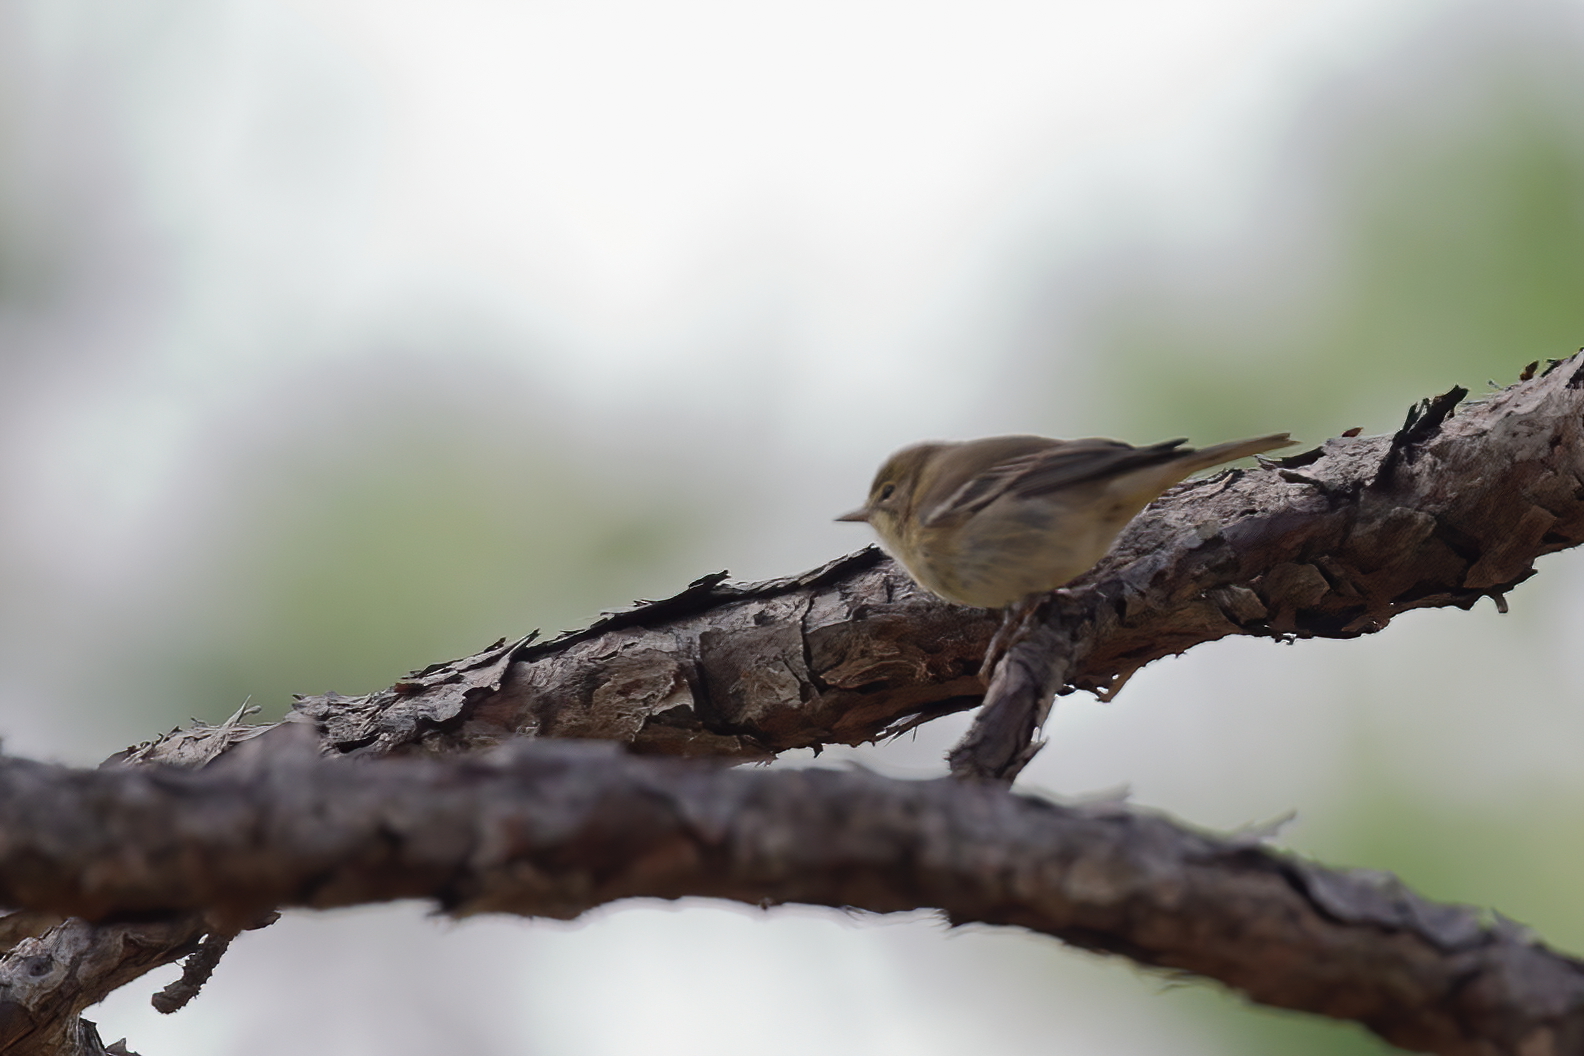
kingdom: Animalia
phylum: Chordata
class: Aves
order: Passeriformes
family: Parulidae
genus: Setophaga
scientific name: Setophaga pinus
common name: Pine warbler
